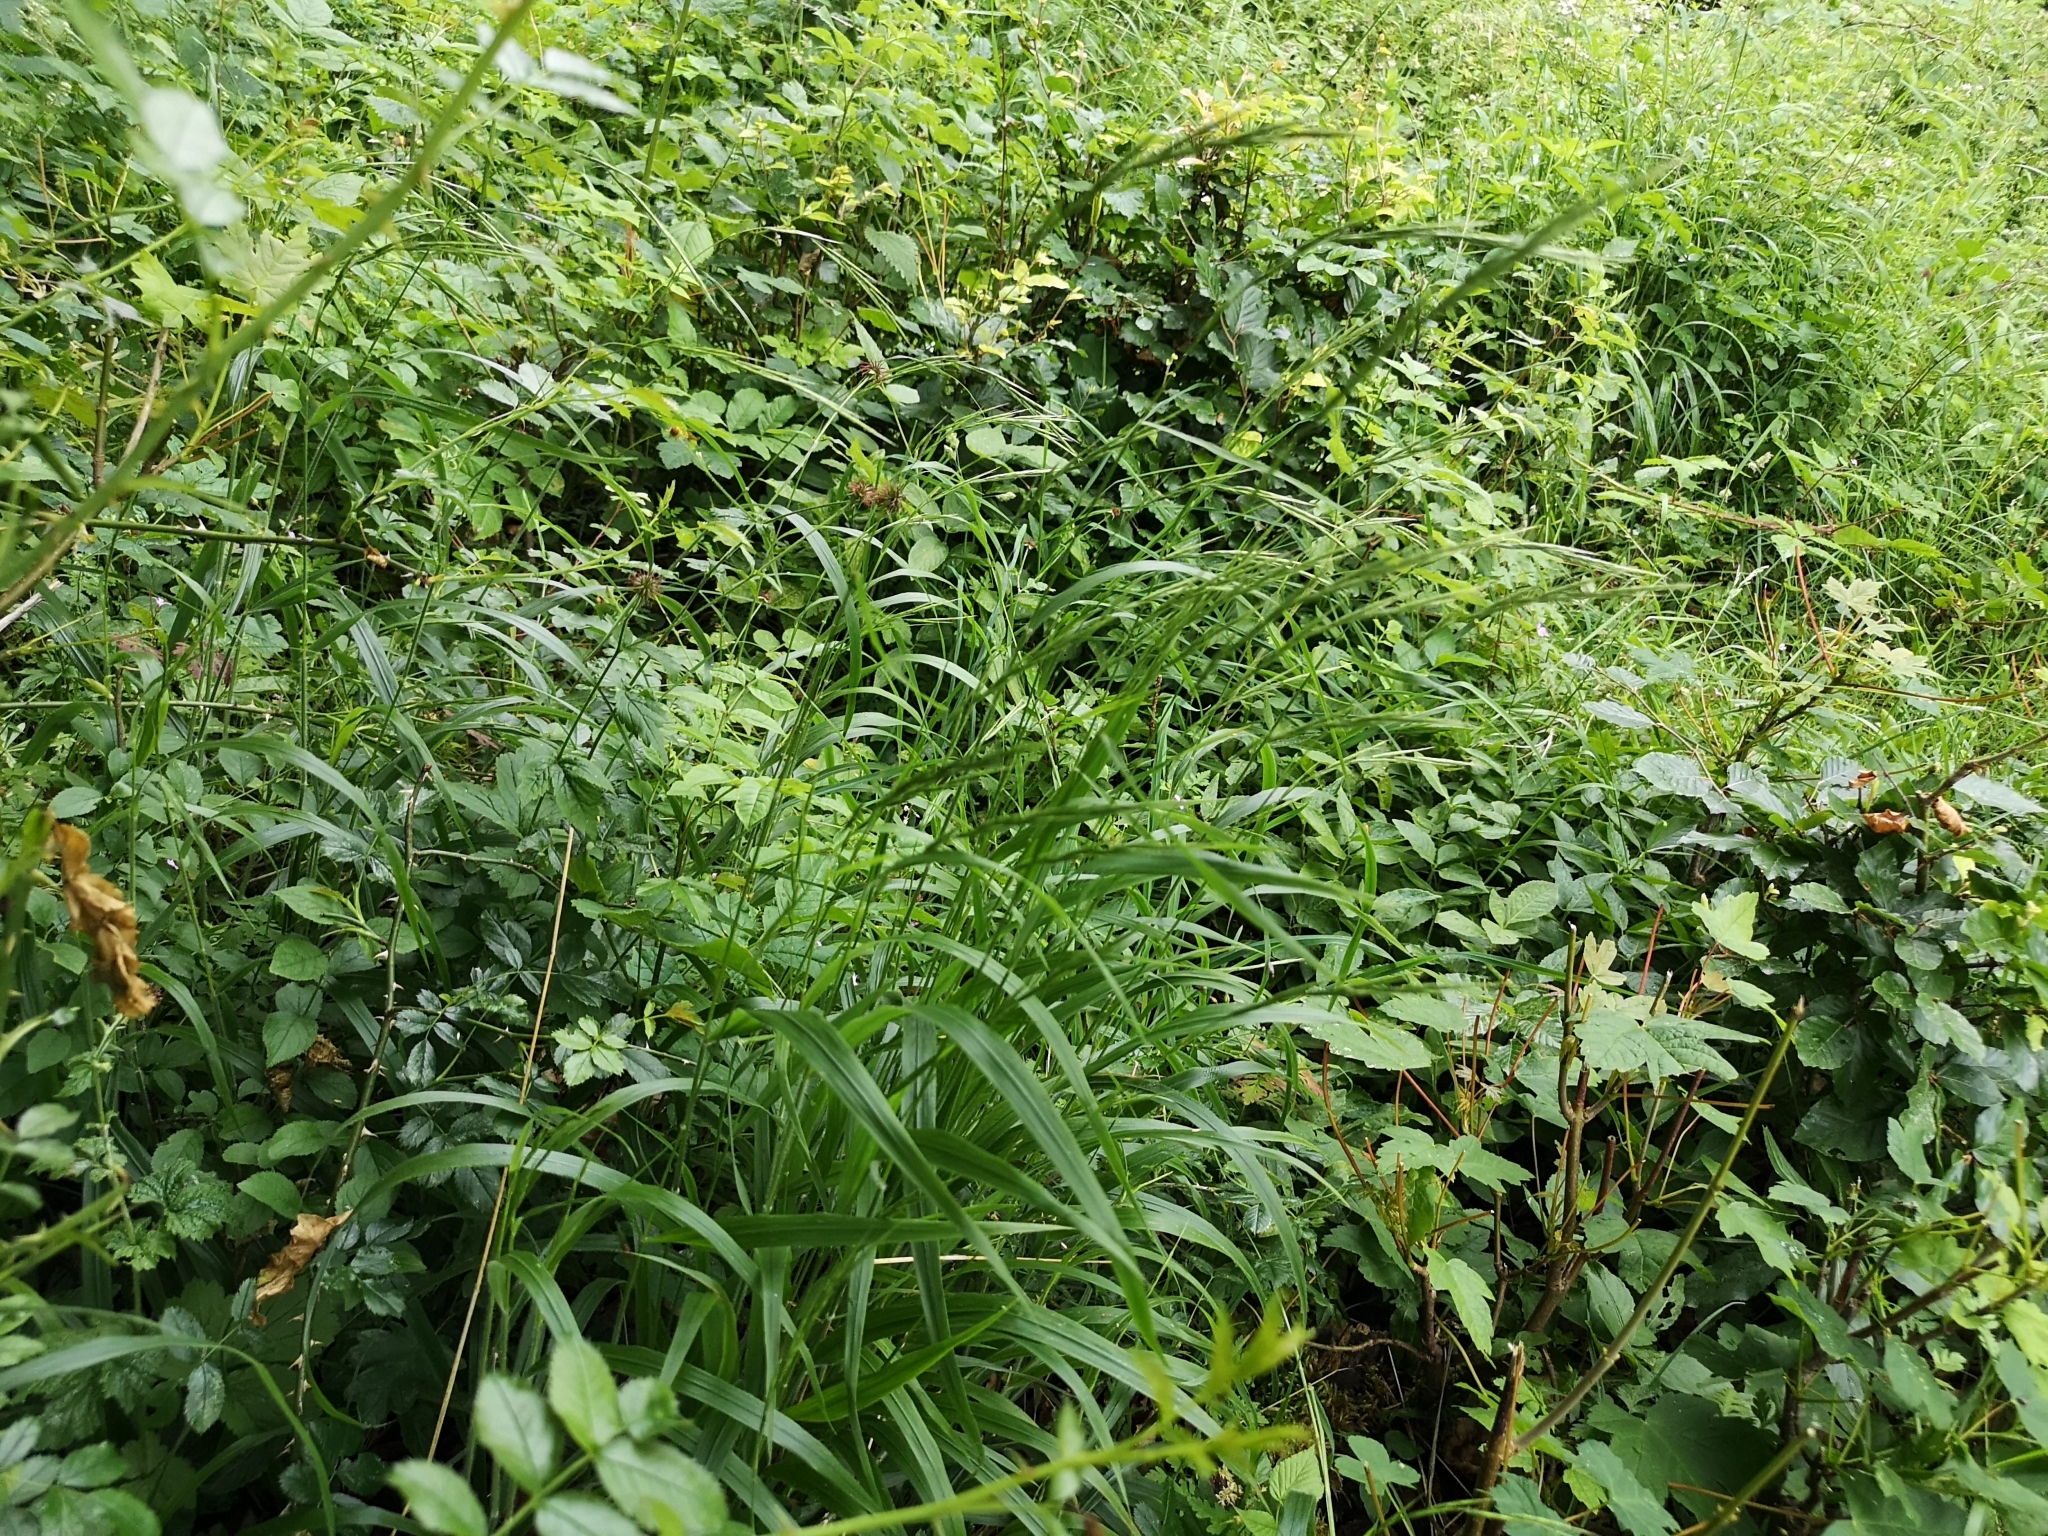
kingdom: Plantae
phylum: Tracheophyta
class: Liliopsida
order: Poales
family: Poaceae
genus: Brachypodium
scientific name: Brachypodium sylvaticum
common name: False-brome
